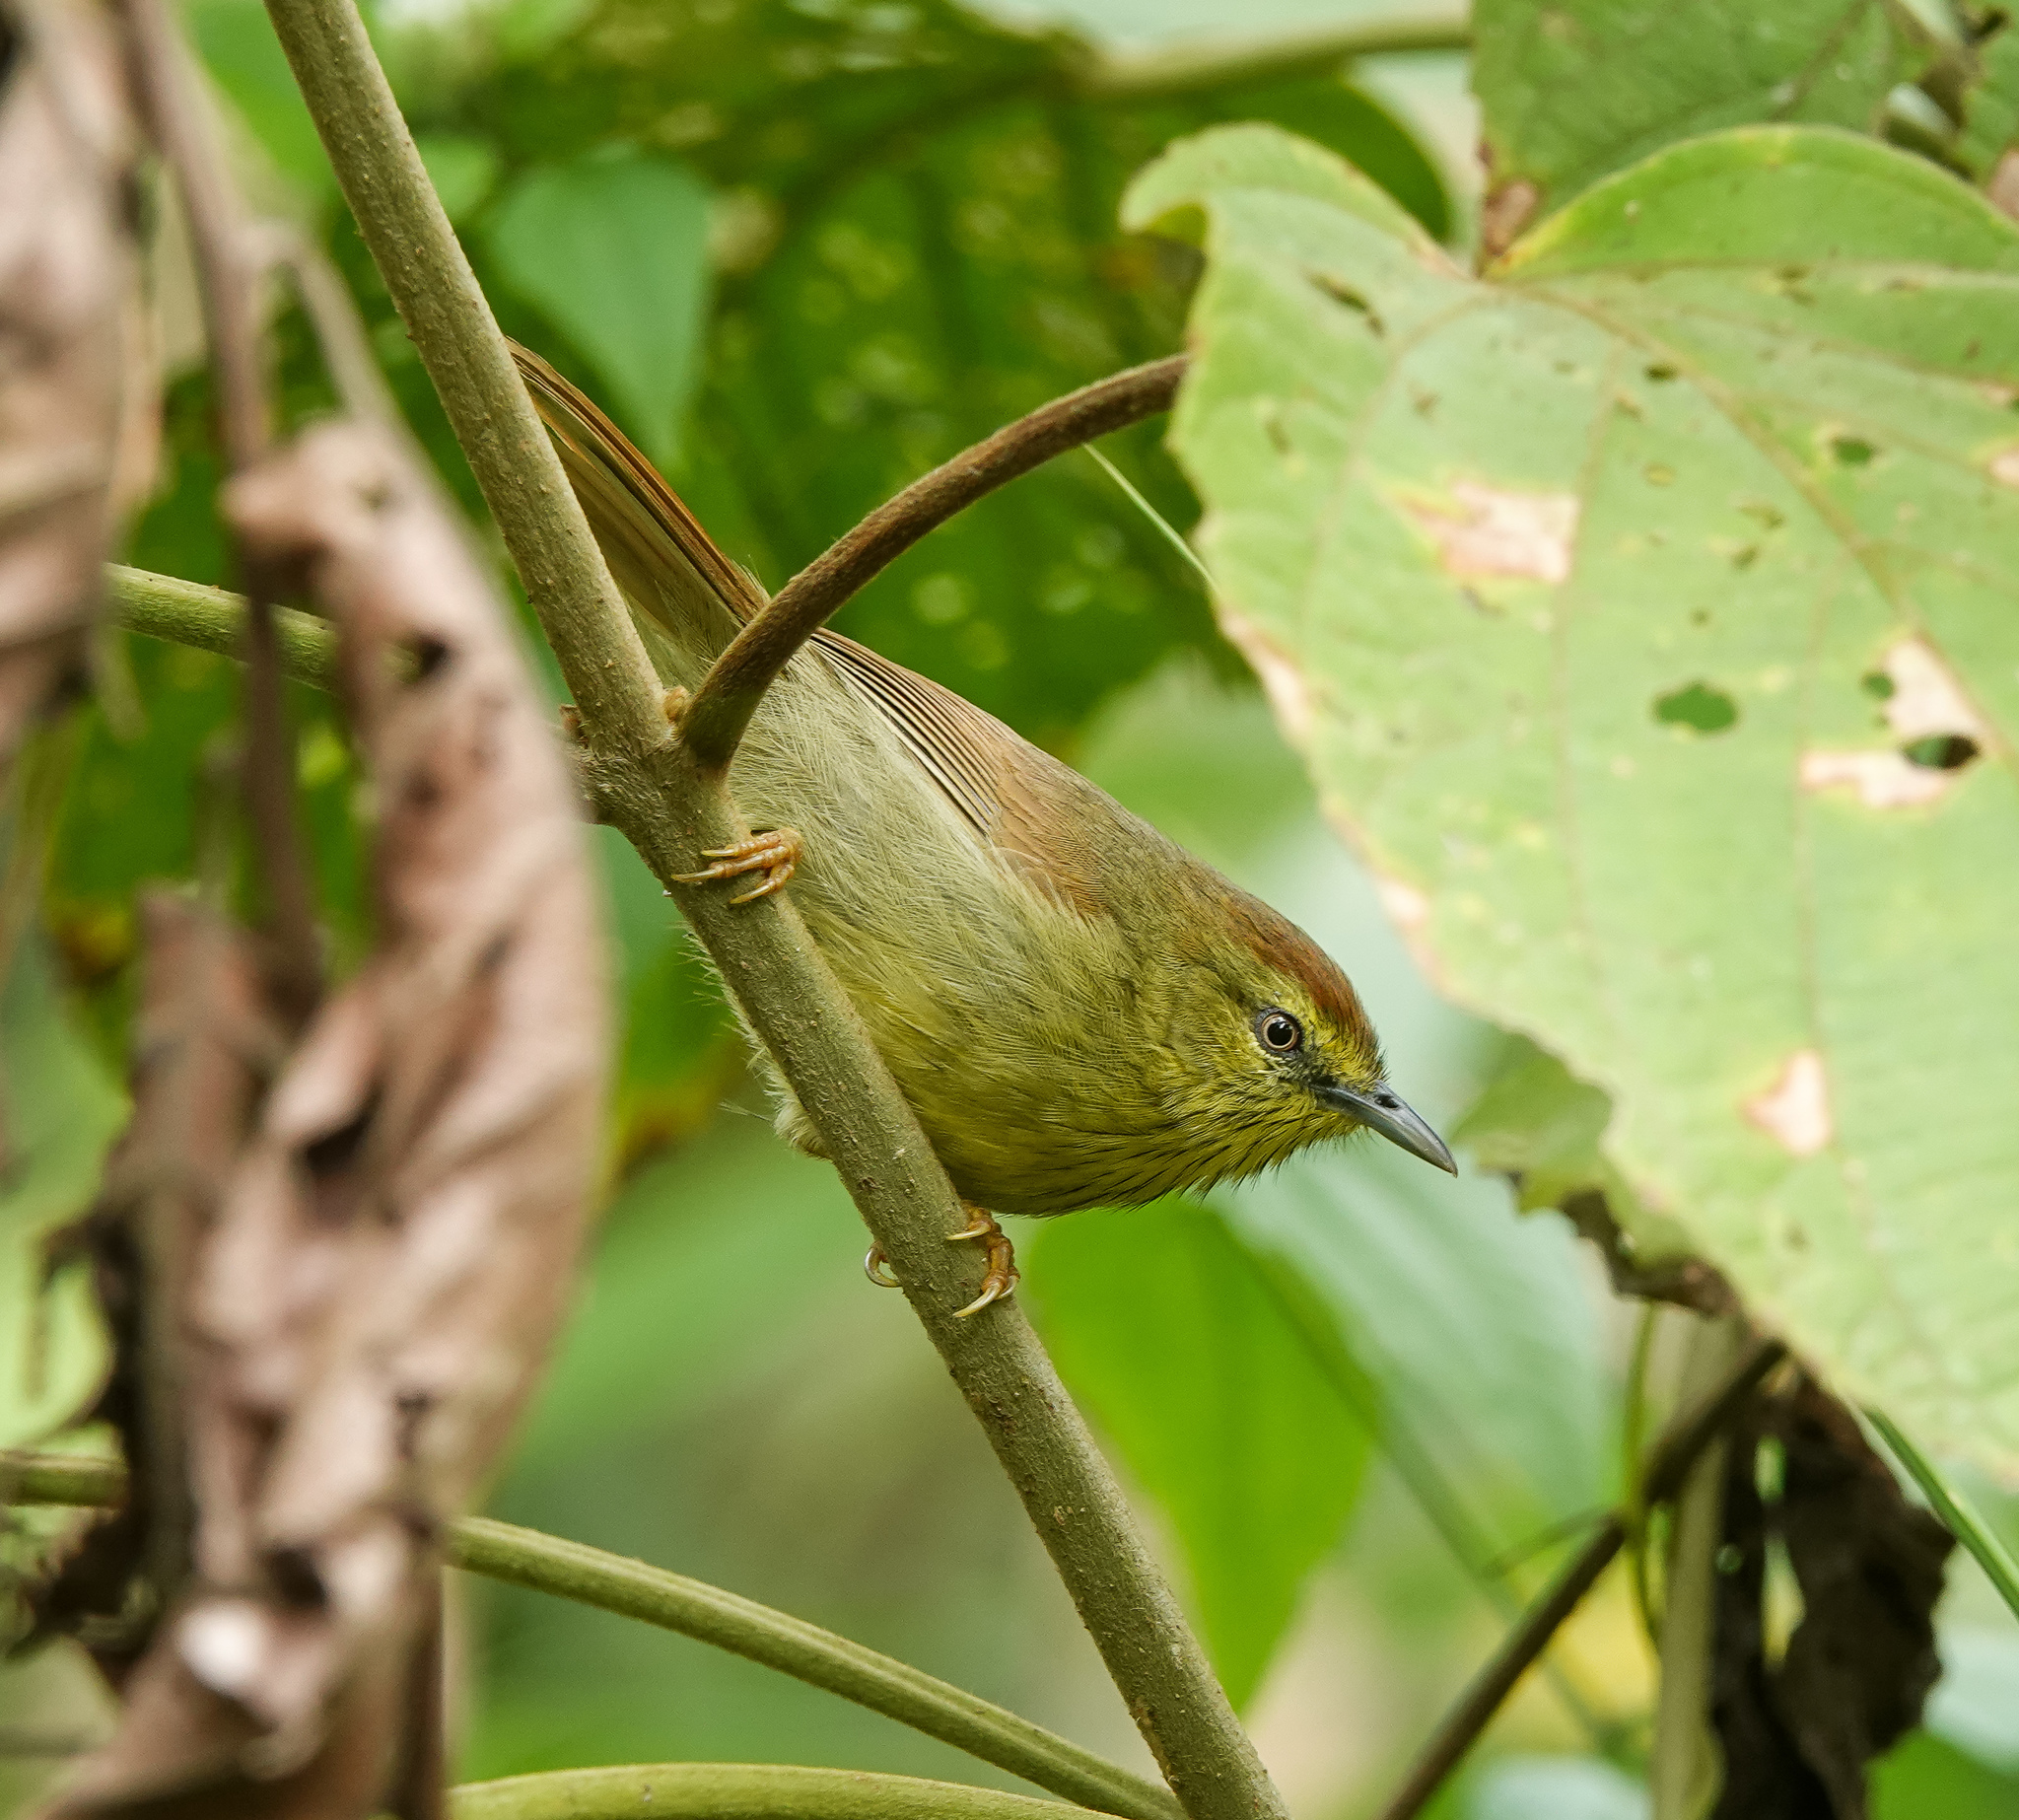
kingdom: Animalia
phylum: Chordata
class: Aves
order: Passeriformes
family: Timaliidae
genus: Macronus
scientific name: Macronus gularis
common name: Striped tit-babbler
